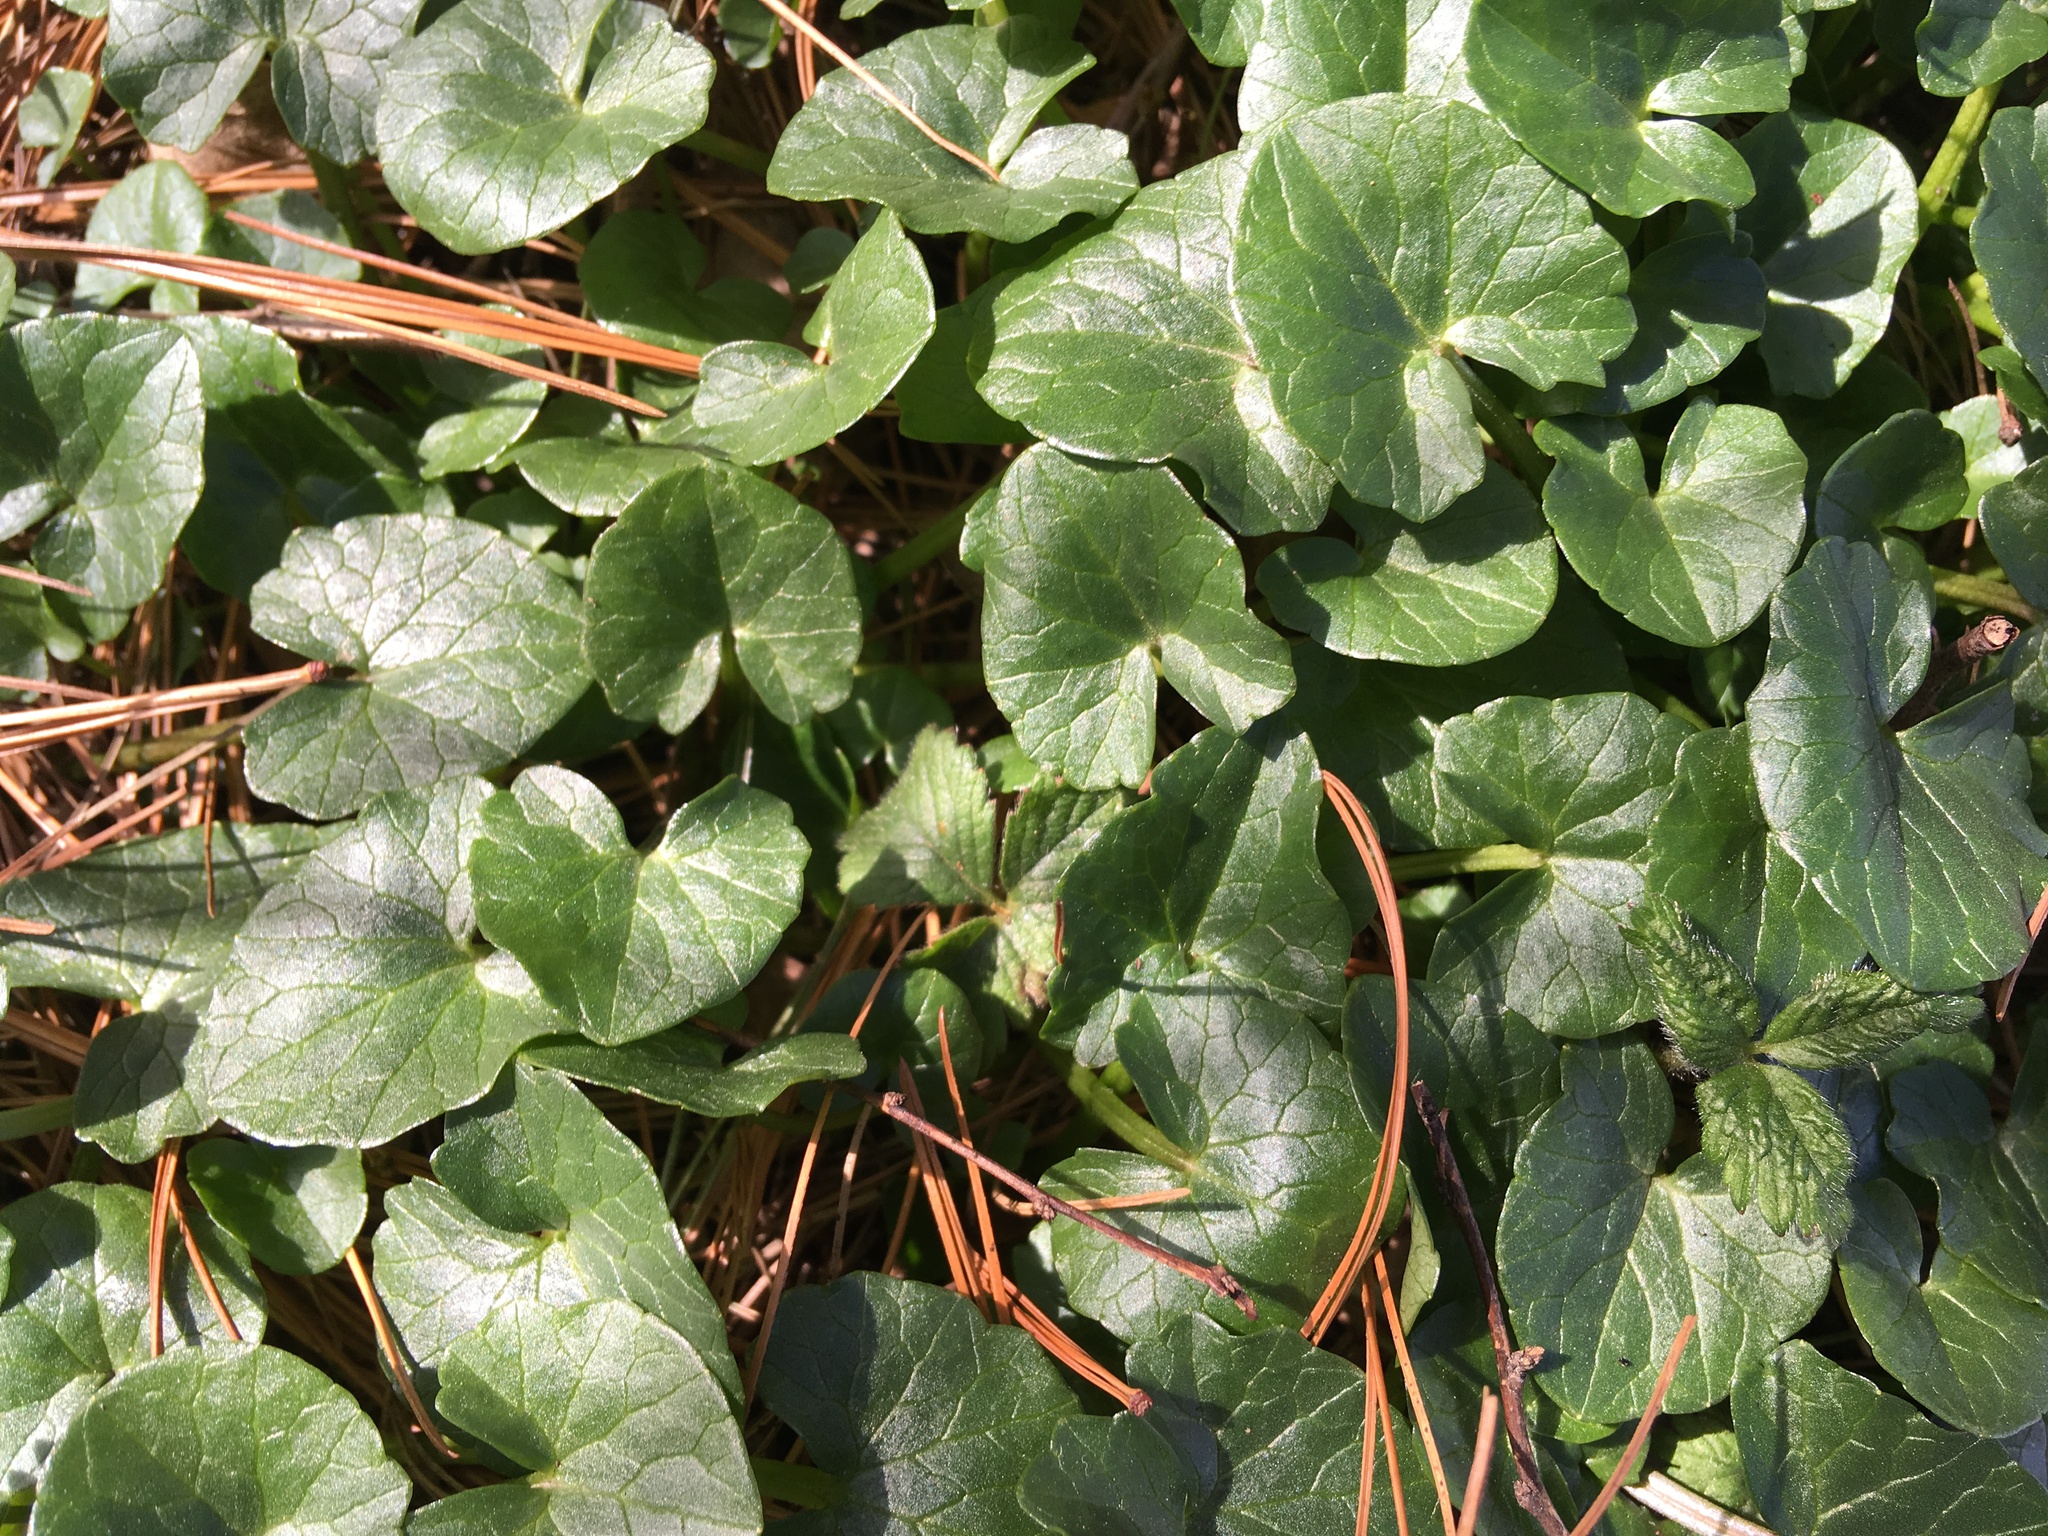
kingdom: Plantae
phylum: Tracheophyta
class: Magnoliopsida
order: Ranunculales
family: Ranunculaceae
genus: Ficaria
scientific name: Ficaria verna
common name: Lesser celandine
